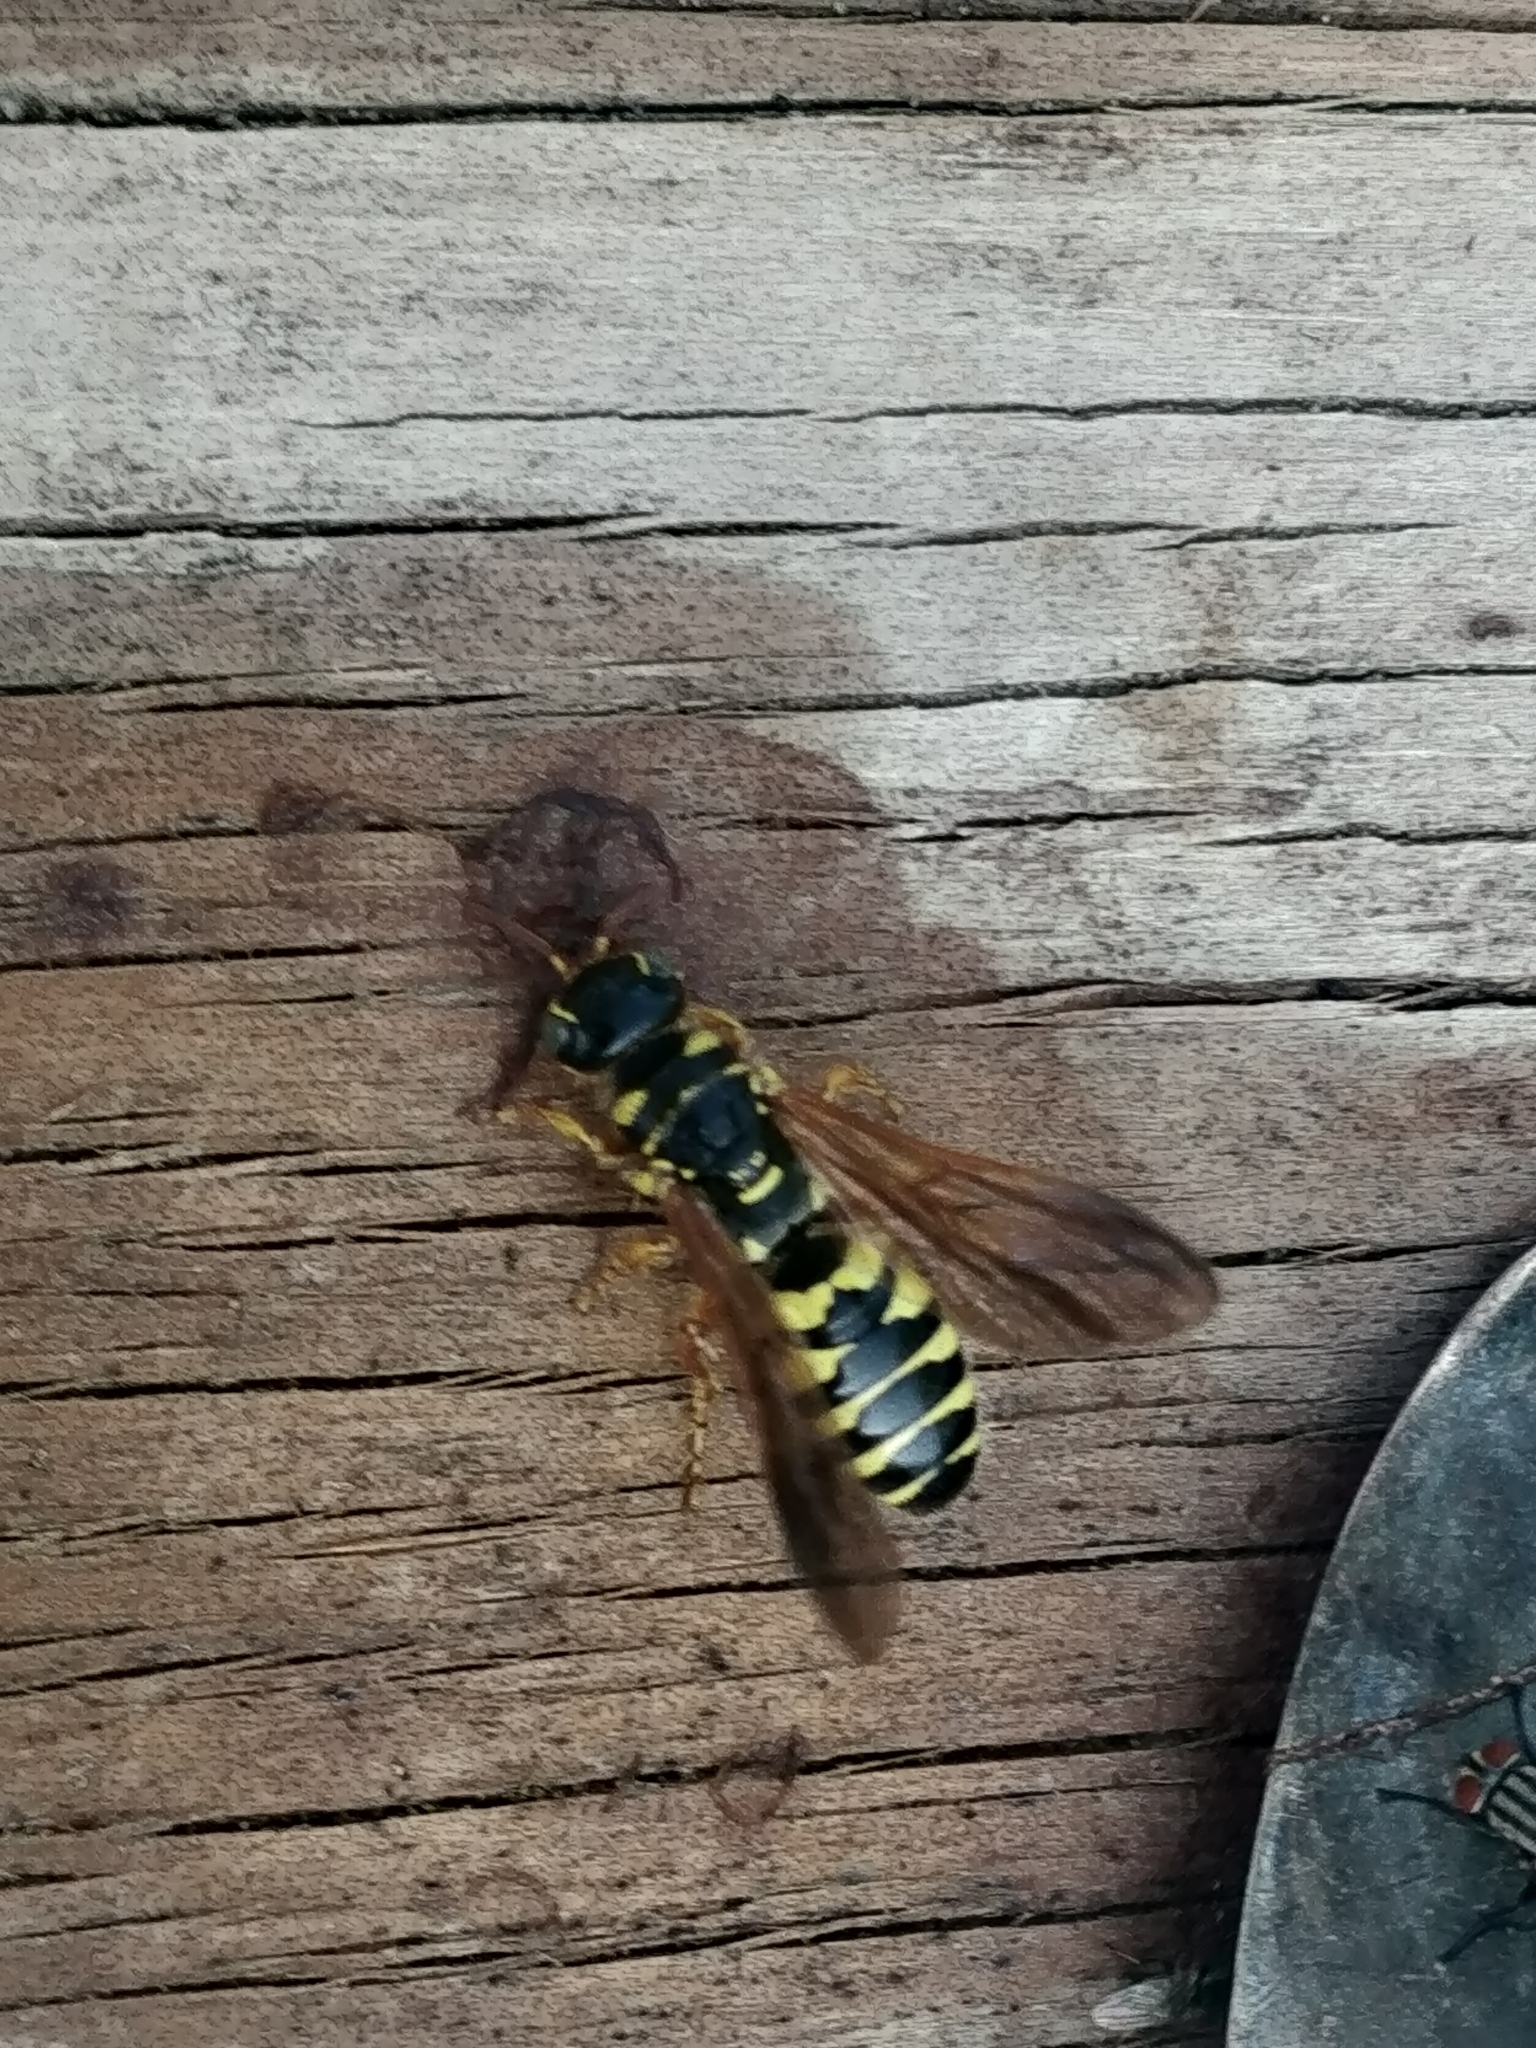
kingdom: Animalia
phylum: Arthropoda
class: Insecta
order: Hymenoptera
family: Tiphiidae
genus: Myzinum
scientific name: Myzinum quinquecinctum
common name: Five-banded thynnid wasp
